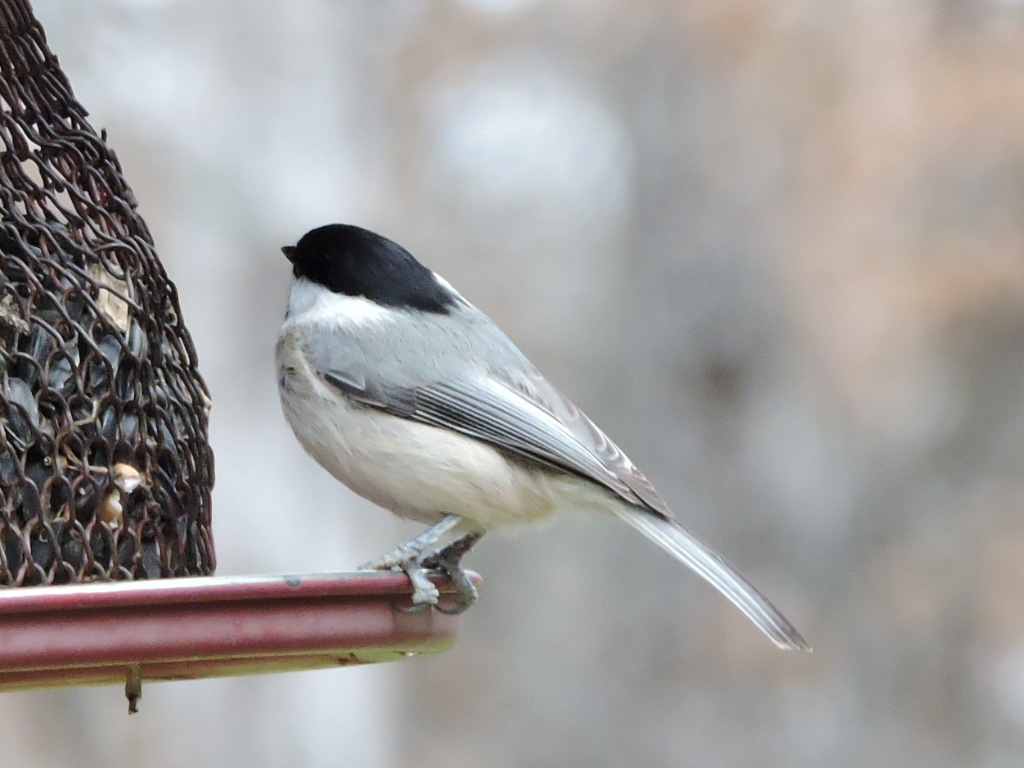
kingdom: Animalia
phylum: Chordata
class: Aves
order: Passeriformes
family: Paridae
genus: Poecile
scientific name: Poecile carolinensis
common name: Carolina chickadee
